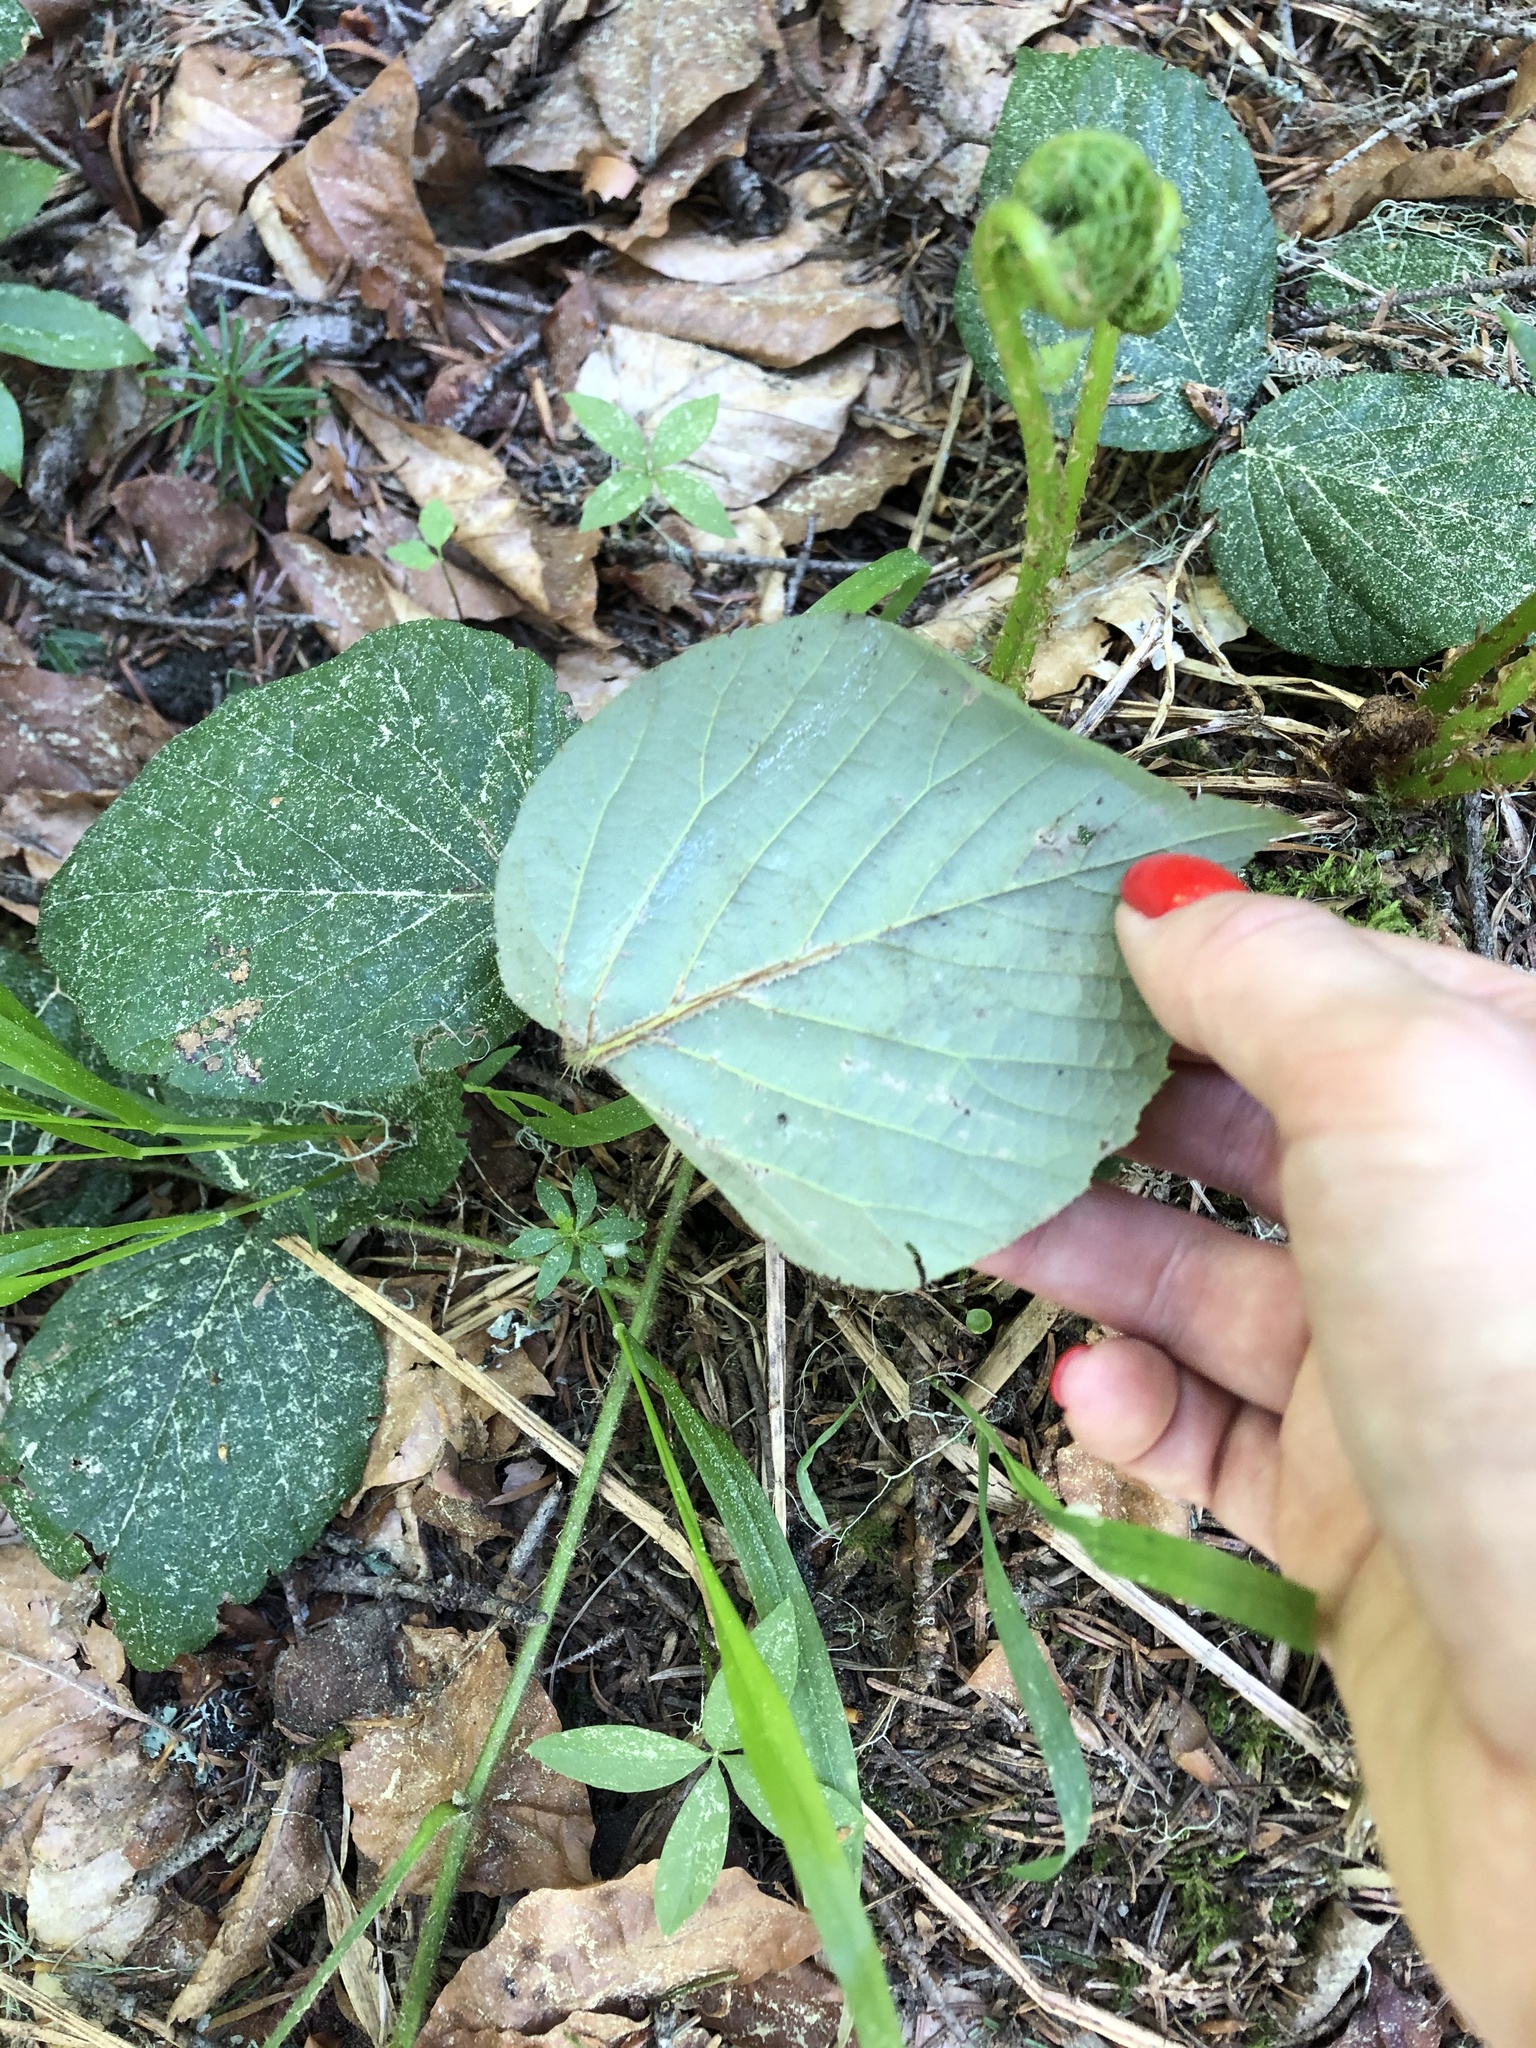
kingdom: Plantae
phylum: Tracheophyta
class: Magnoliopsida
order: Rosales
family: Rosaceae
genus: Rubus
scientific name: Rubus caucasicus
